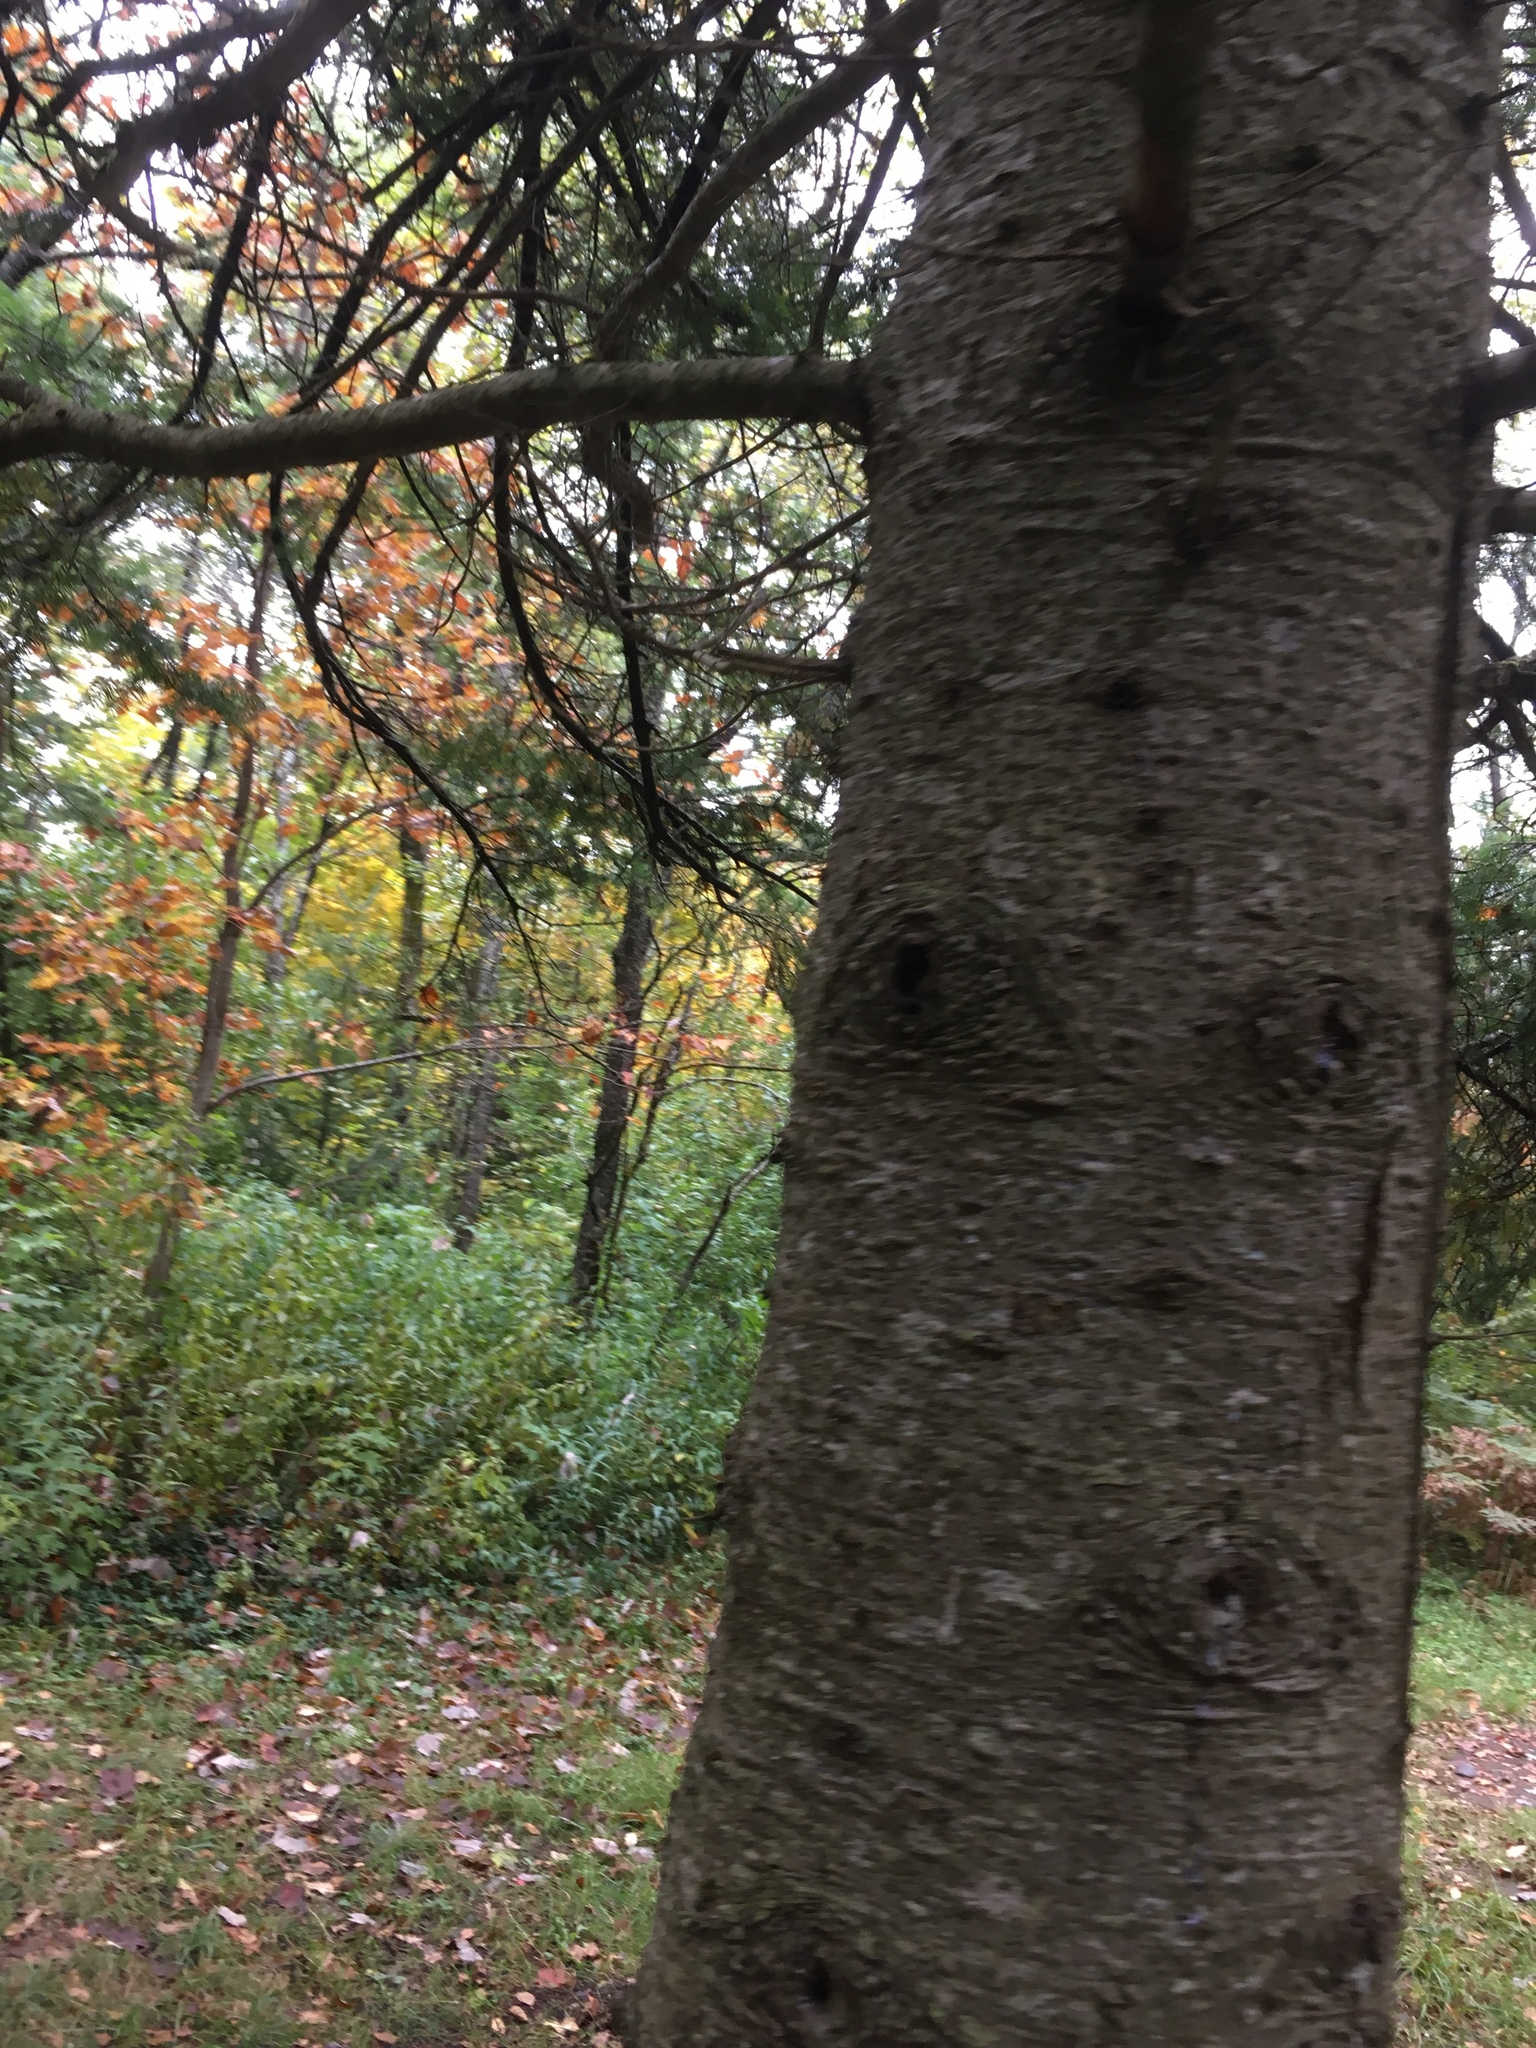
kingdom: Plantae
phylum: Tracheophyta
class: Pinopsida
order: Pinales
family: Pinaceae
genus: Abies
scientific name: Abies balsamea
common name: Balsam fir
